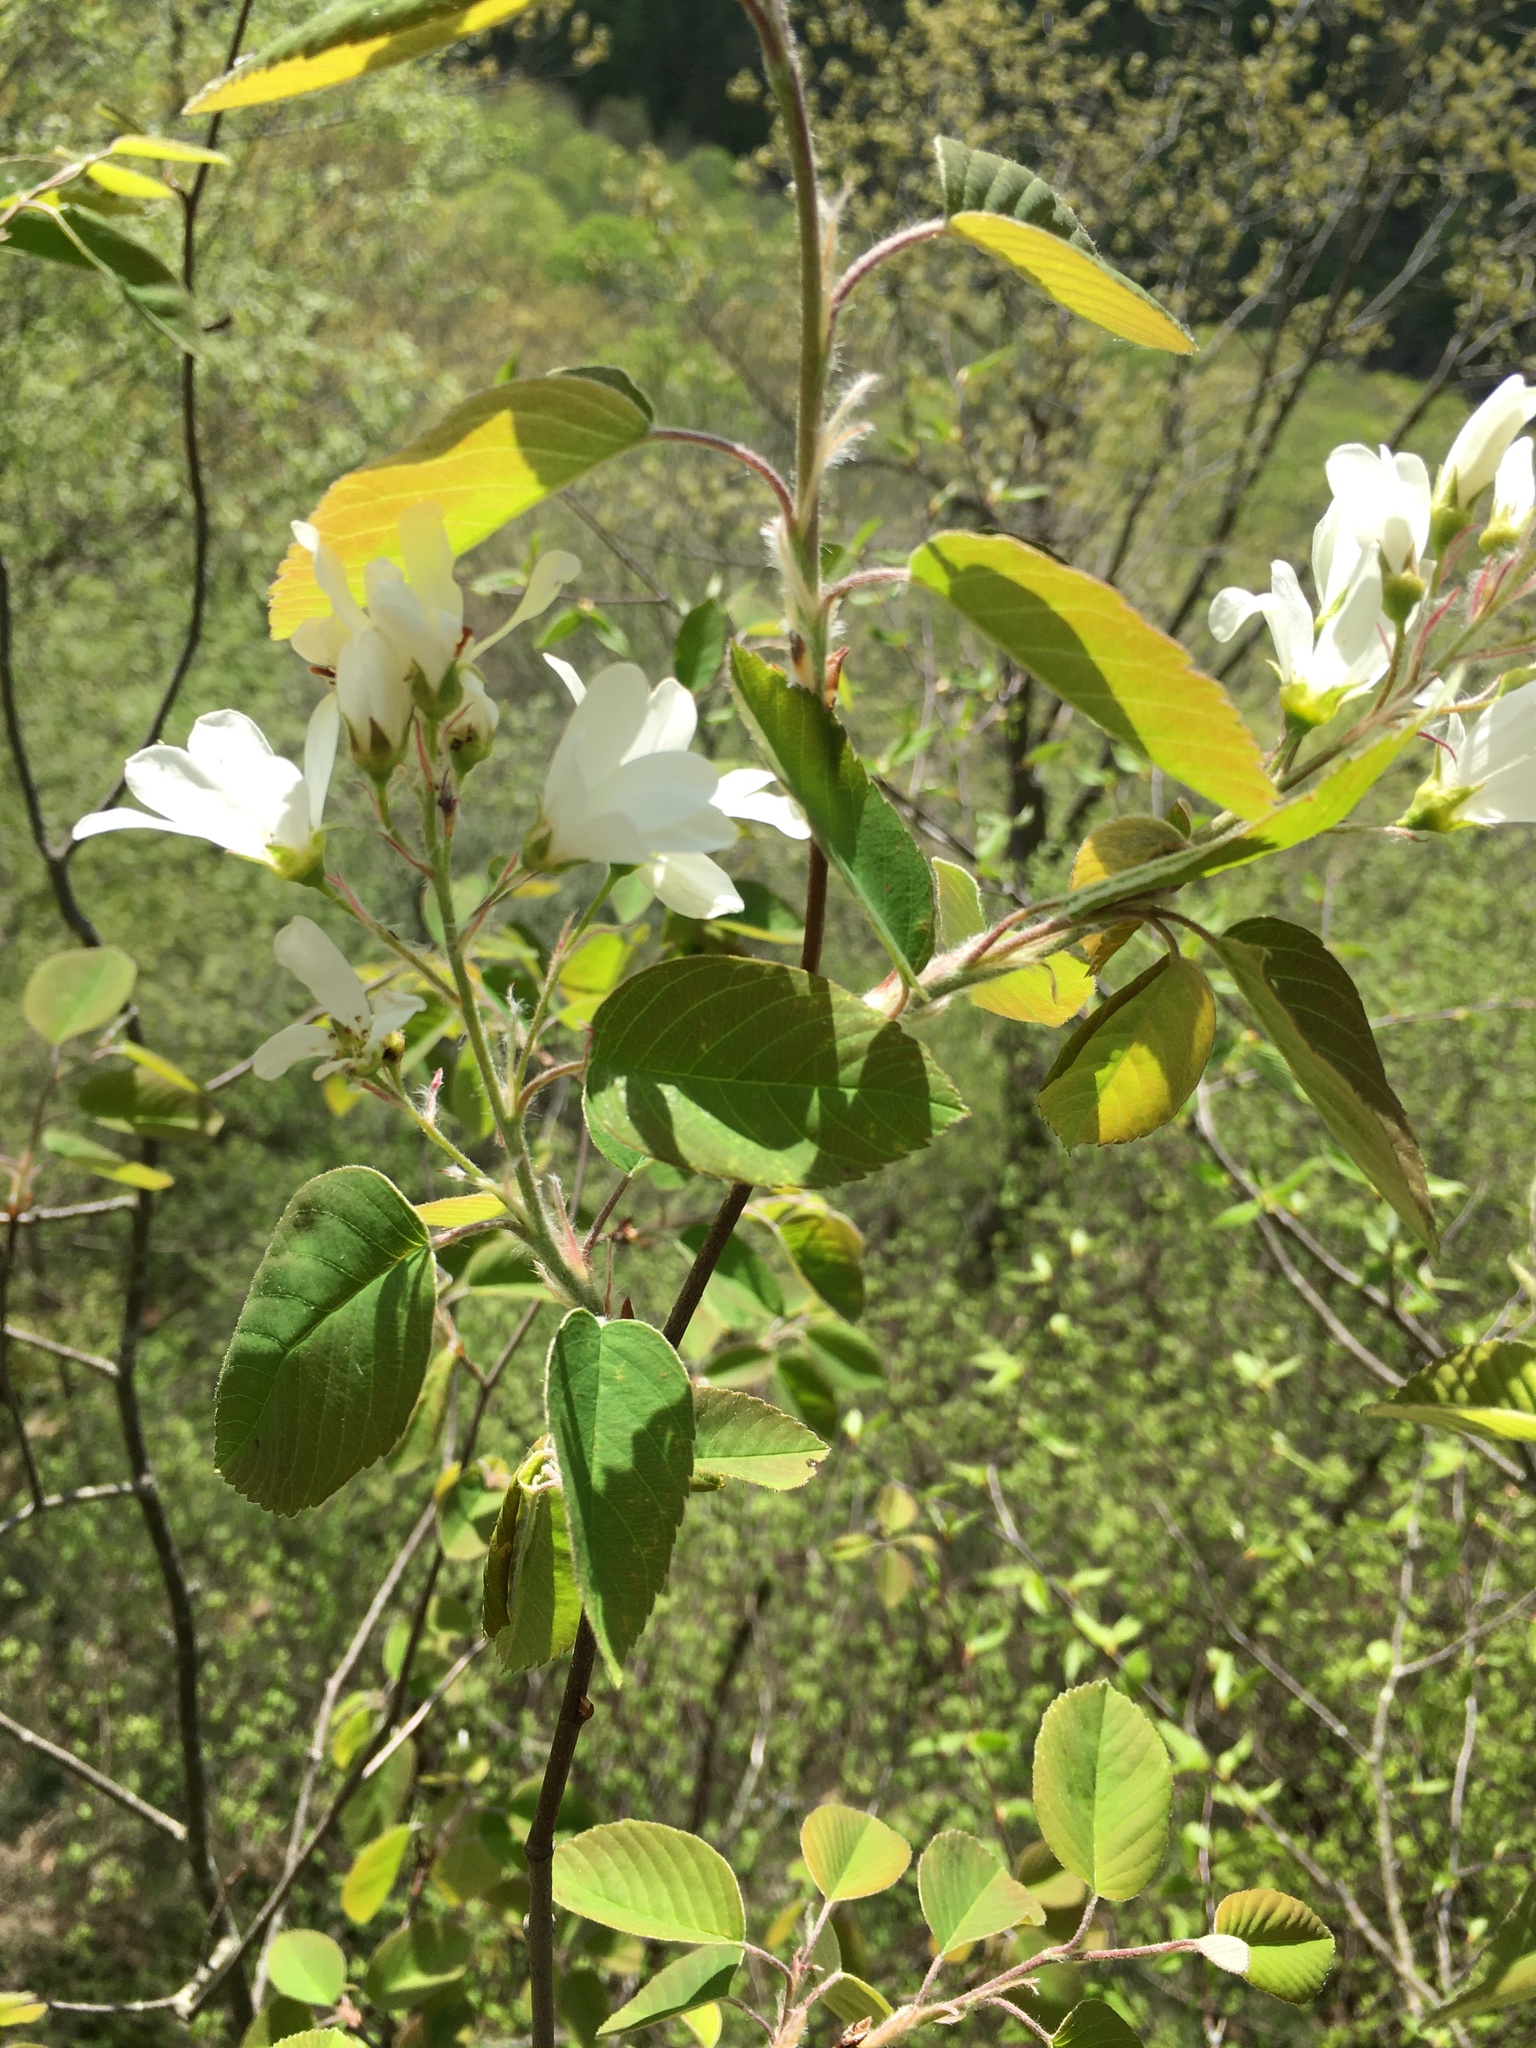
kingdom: Plantae
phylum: Tracheophyta
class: Magnoliopsida
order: Rosales
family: Rosaceae
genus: Amelanchier
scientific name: Amelanchier sanguinea
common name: Huron serviceberry
